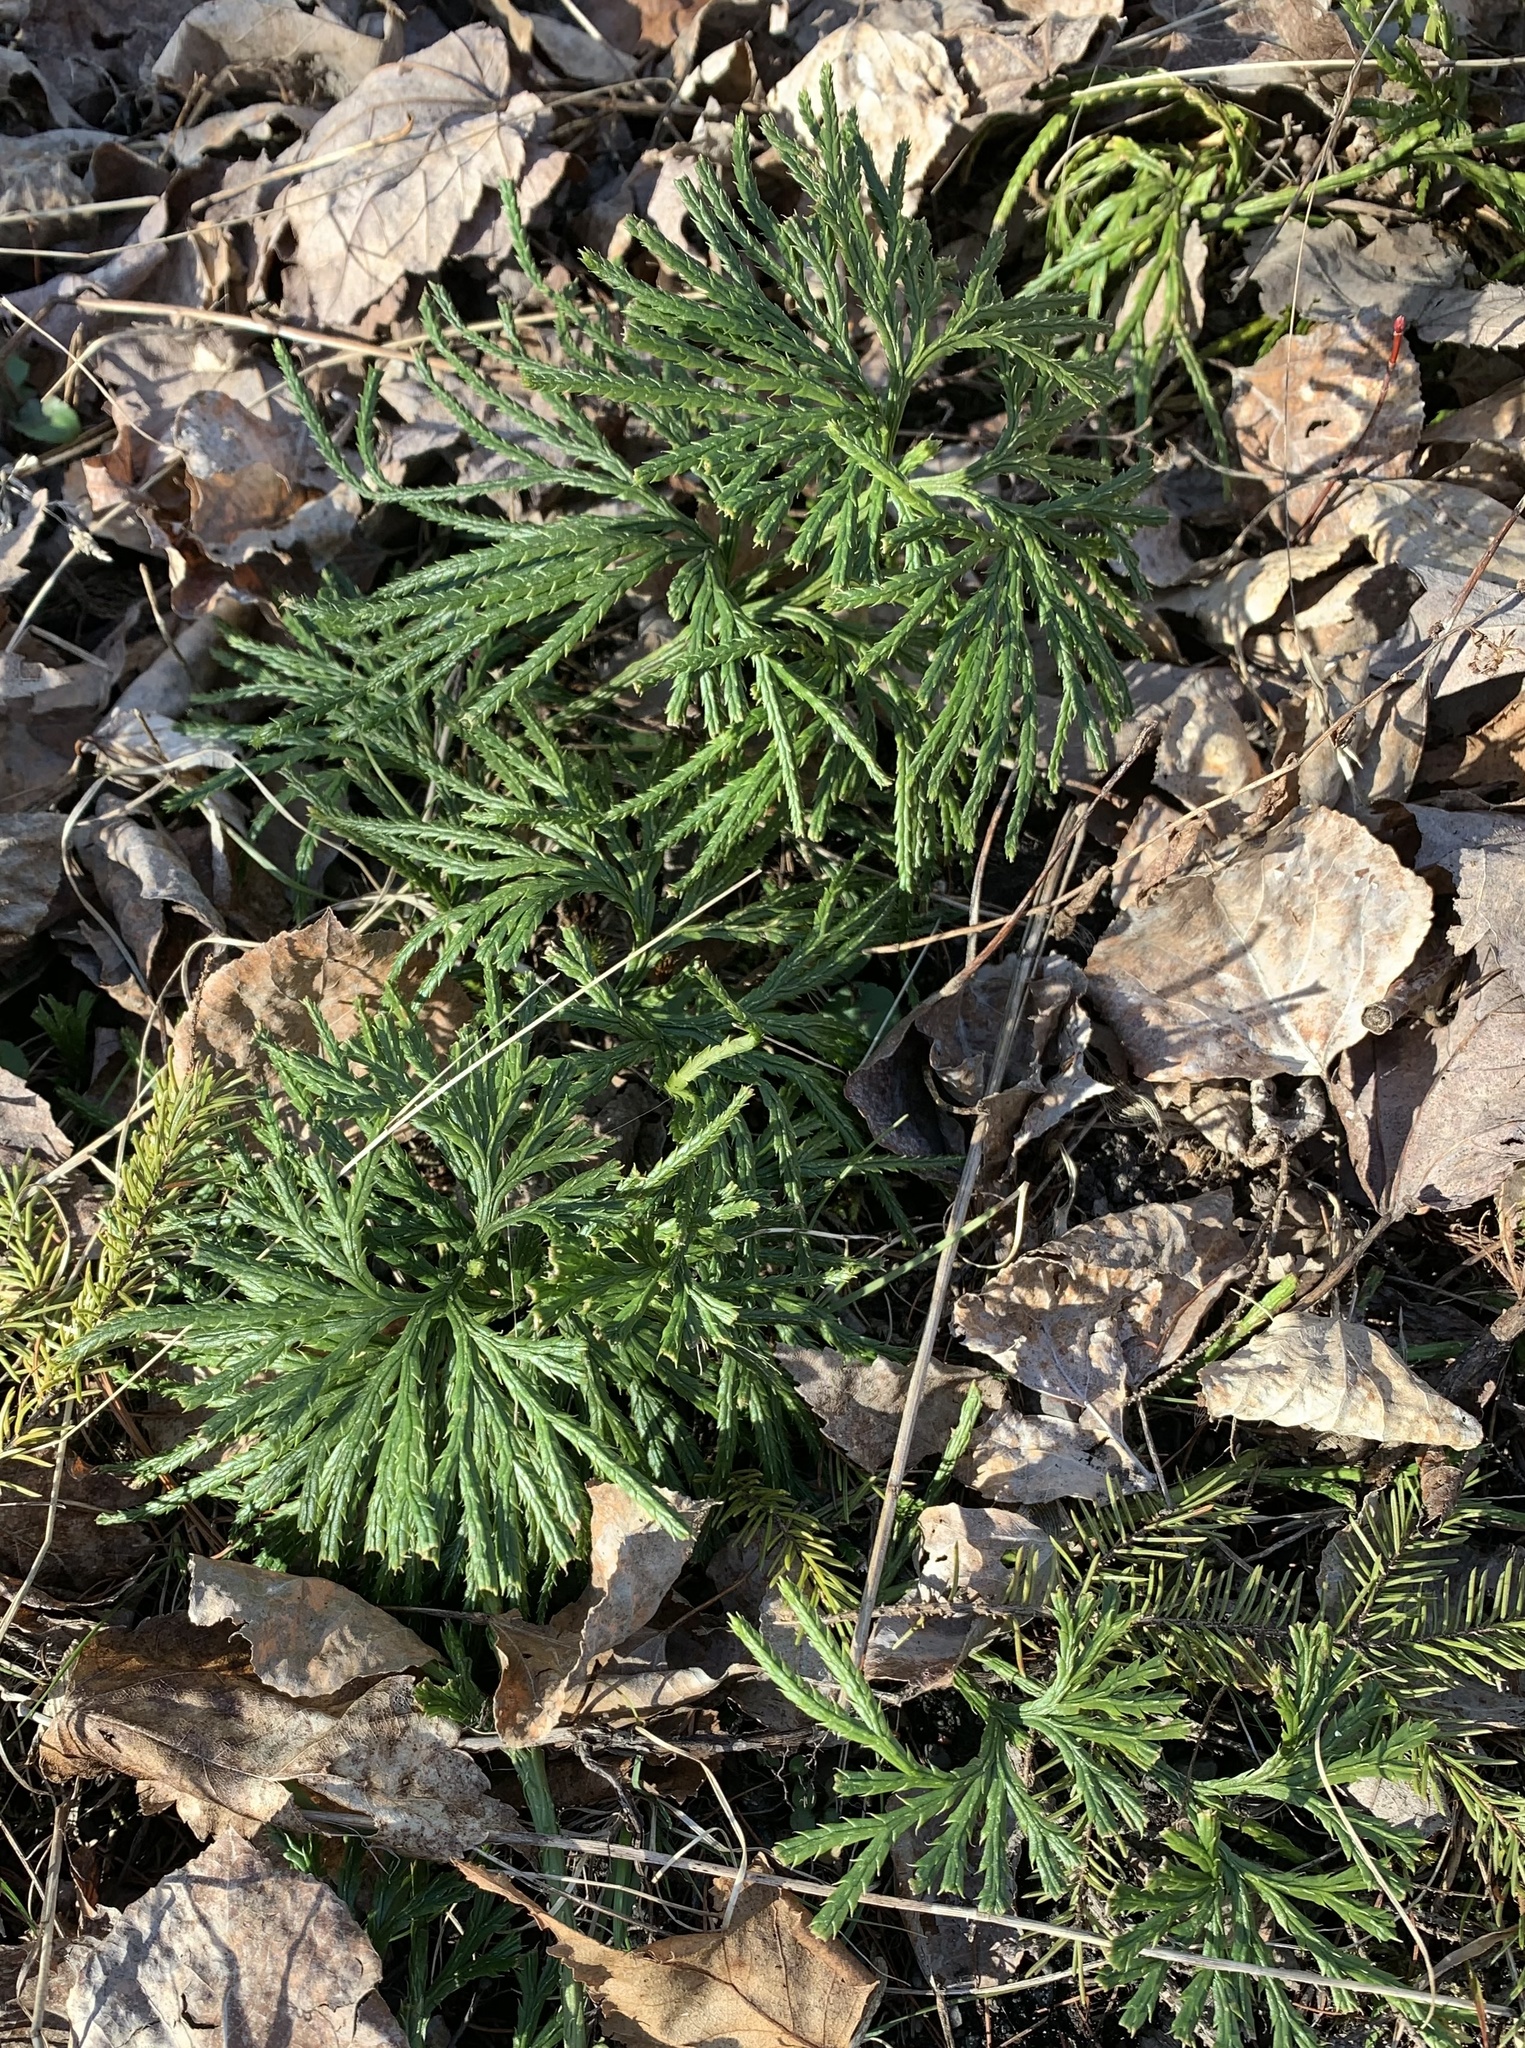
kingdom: Plantae
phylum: Tracheophyta
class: Lycopodiopsida
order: Lycopodiales
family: Lycopodiaceae
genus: Diphasiastrum
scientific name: Diphasiastrum digitatum
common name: Southern running-pine
